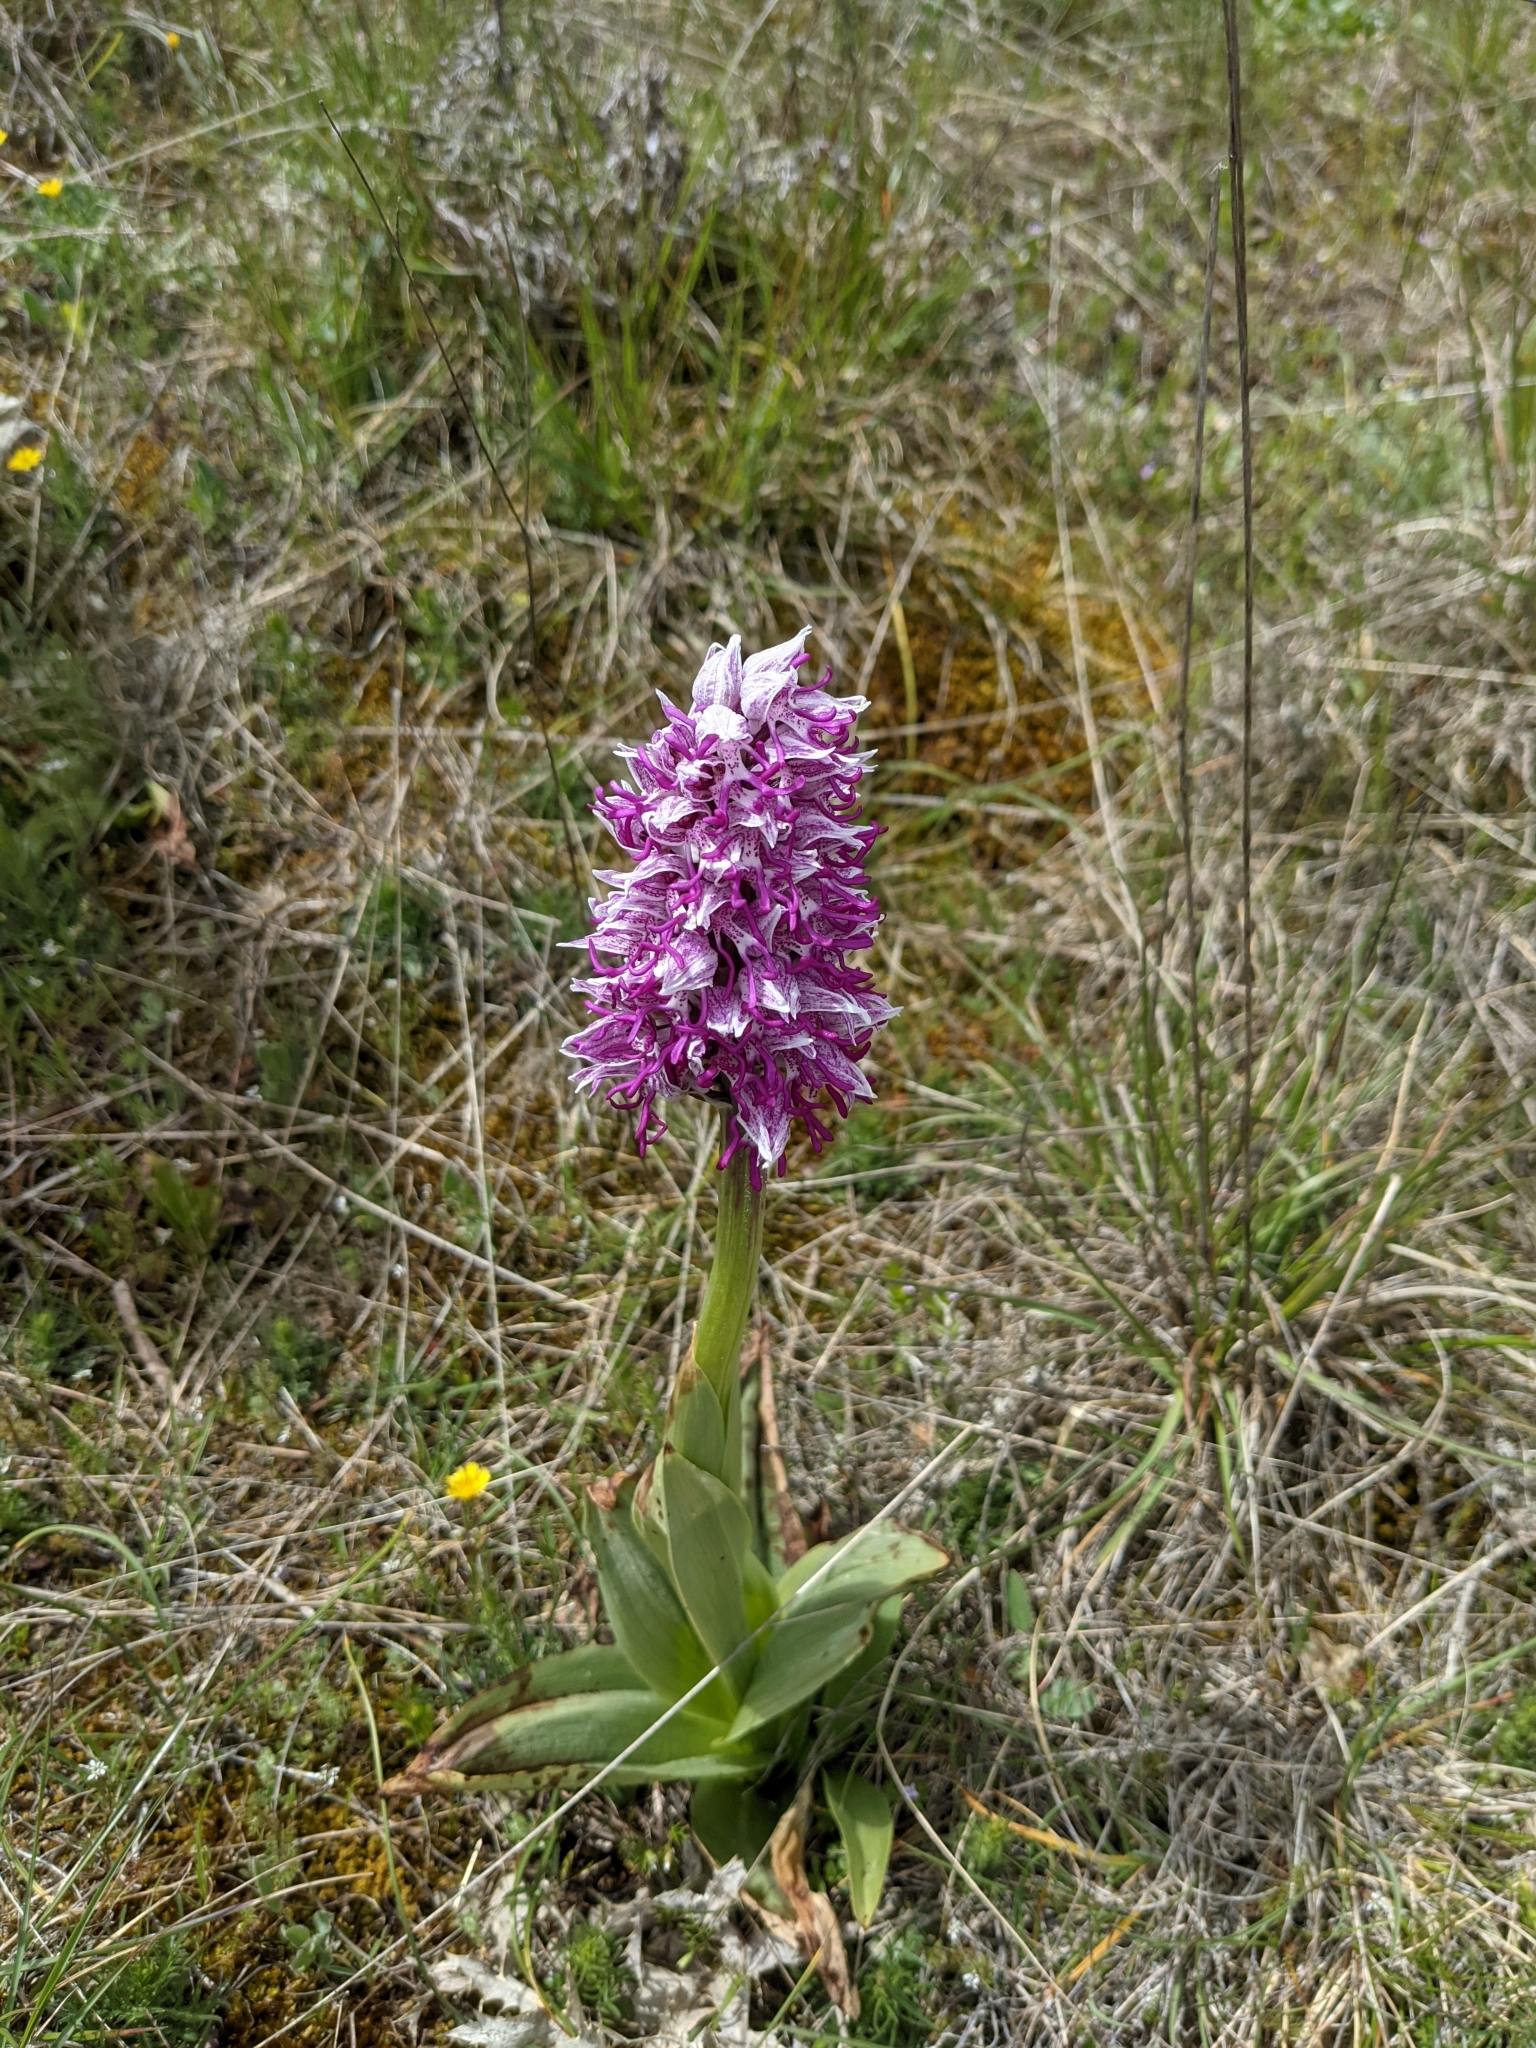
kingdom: Plantae
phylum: Tracheophyta
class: Liliopsida
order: Asparagales
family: Orchidaceae
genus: Orchis
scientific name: Orchis simia
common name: Monkey orchid
